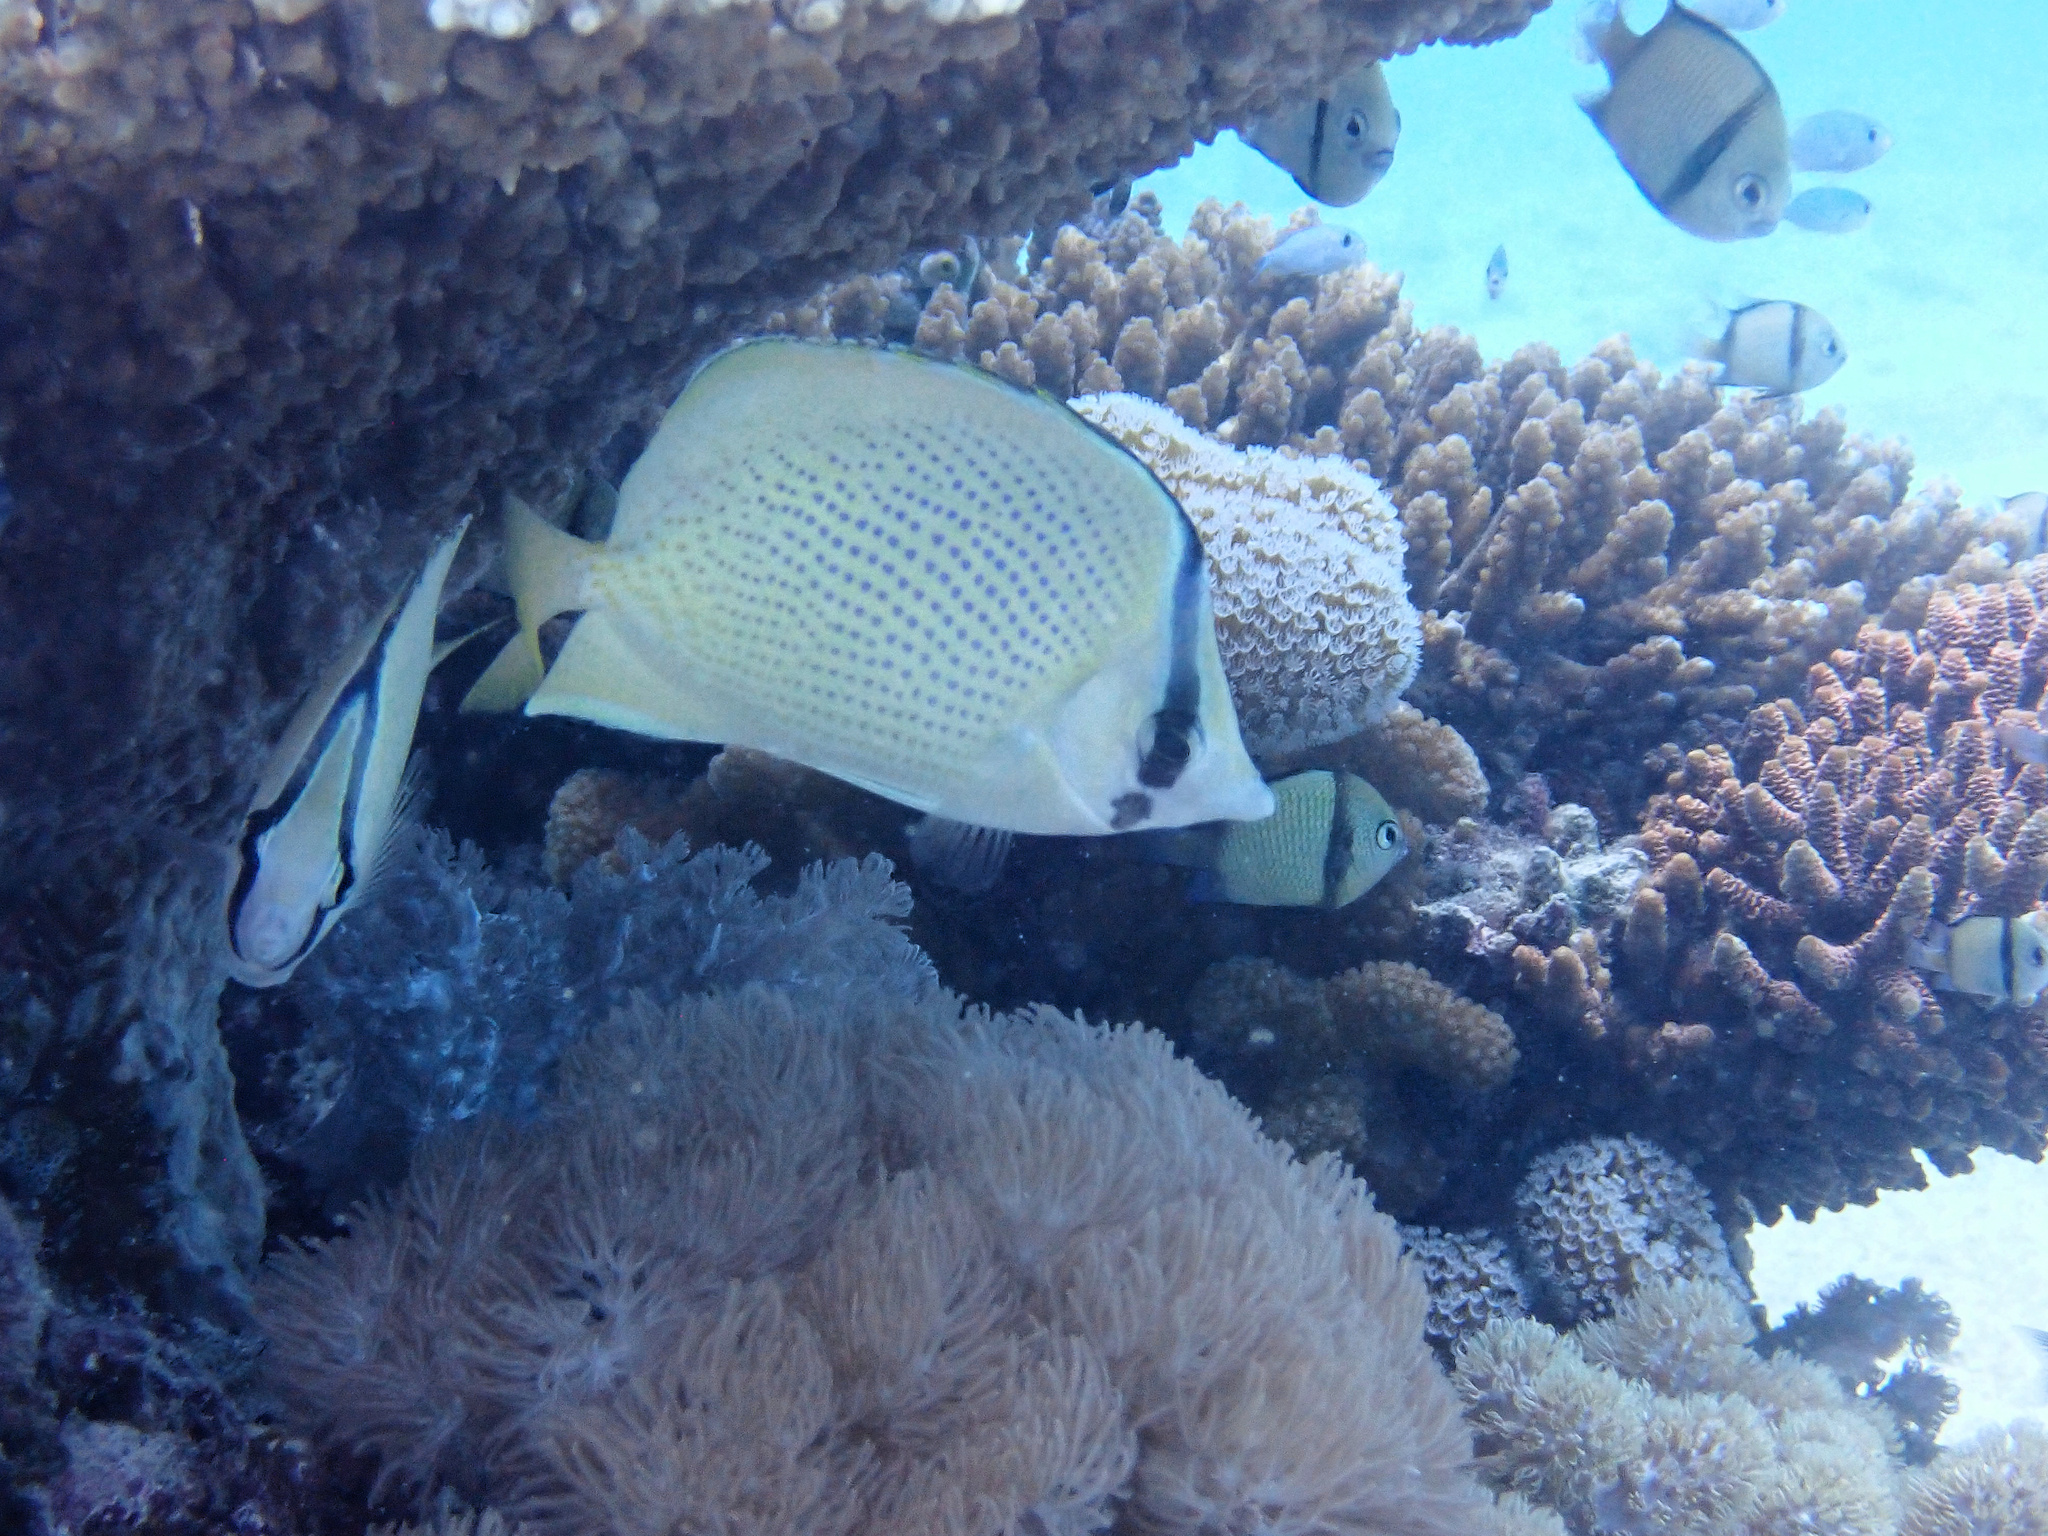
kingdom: Animalia
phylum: Chordata
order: Perciformes
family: Chaetodontidae
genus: Chaetodon
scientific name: Chaetodon citrinellus
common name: Speckled butterflyfish
